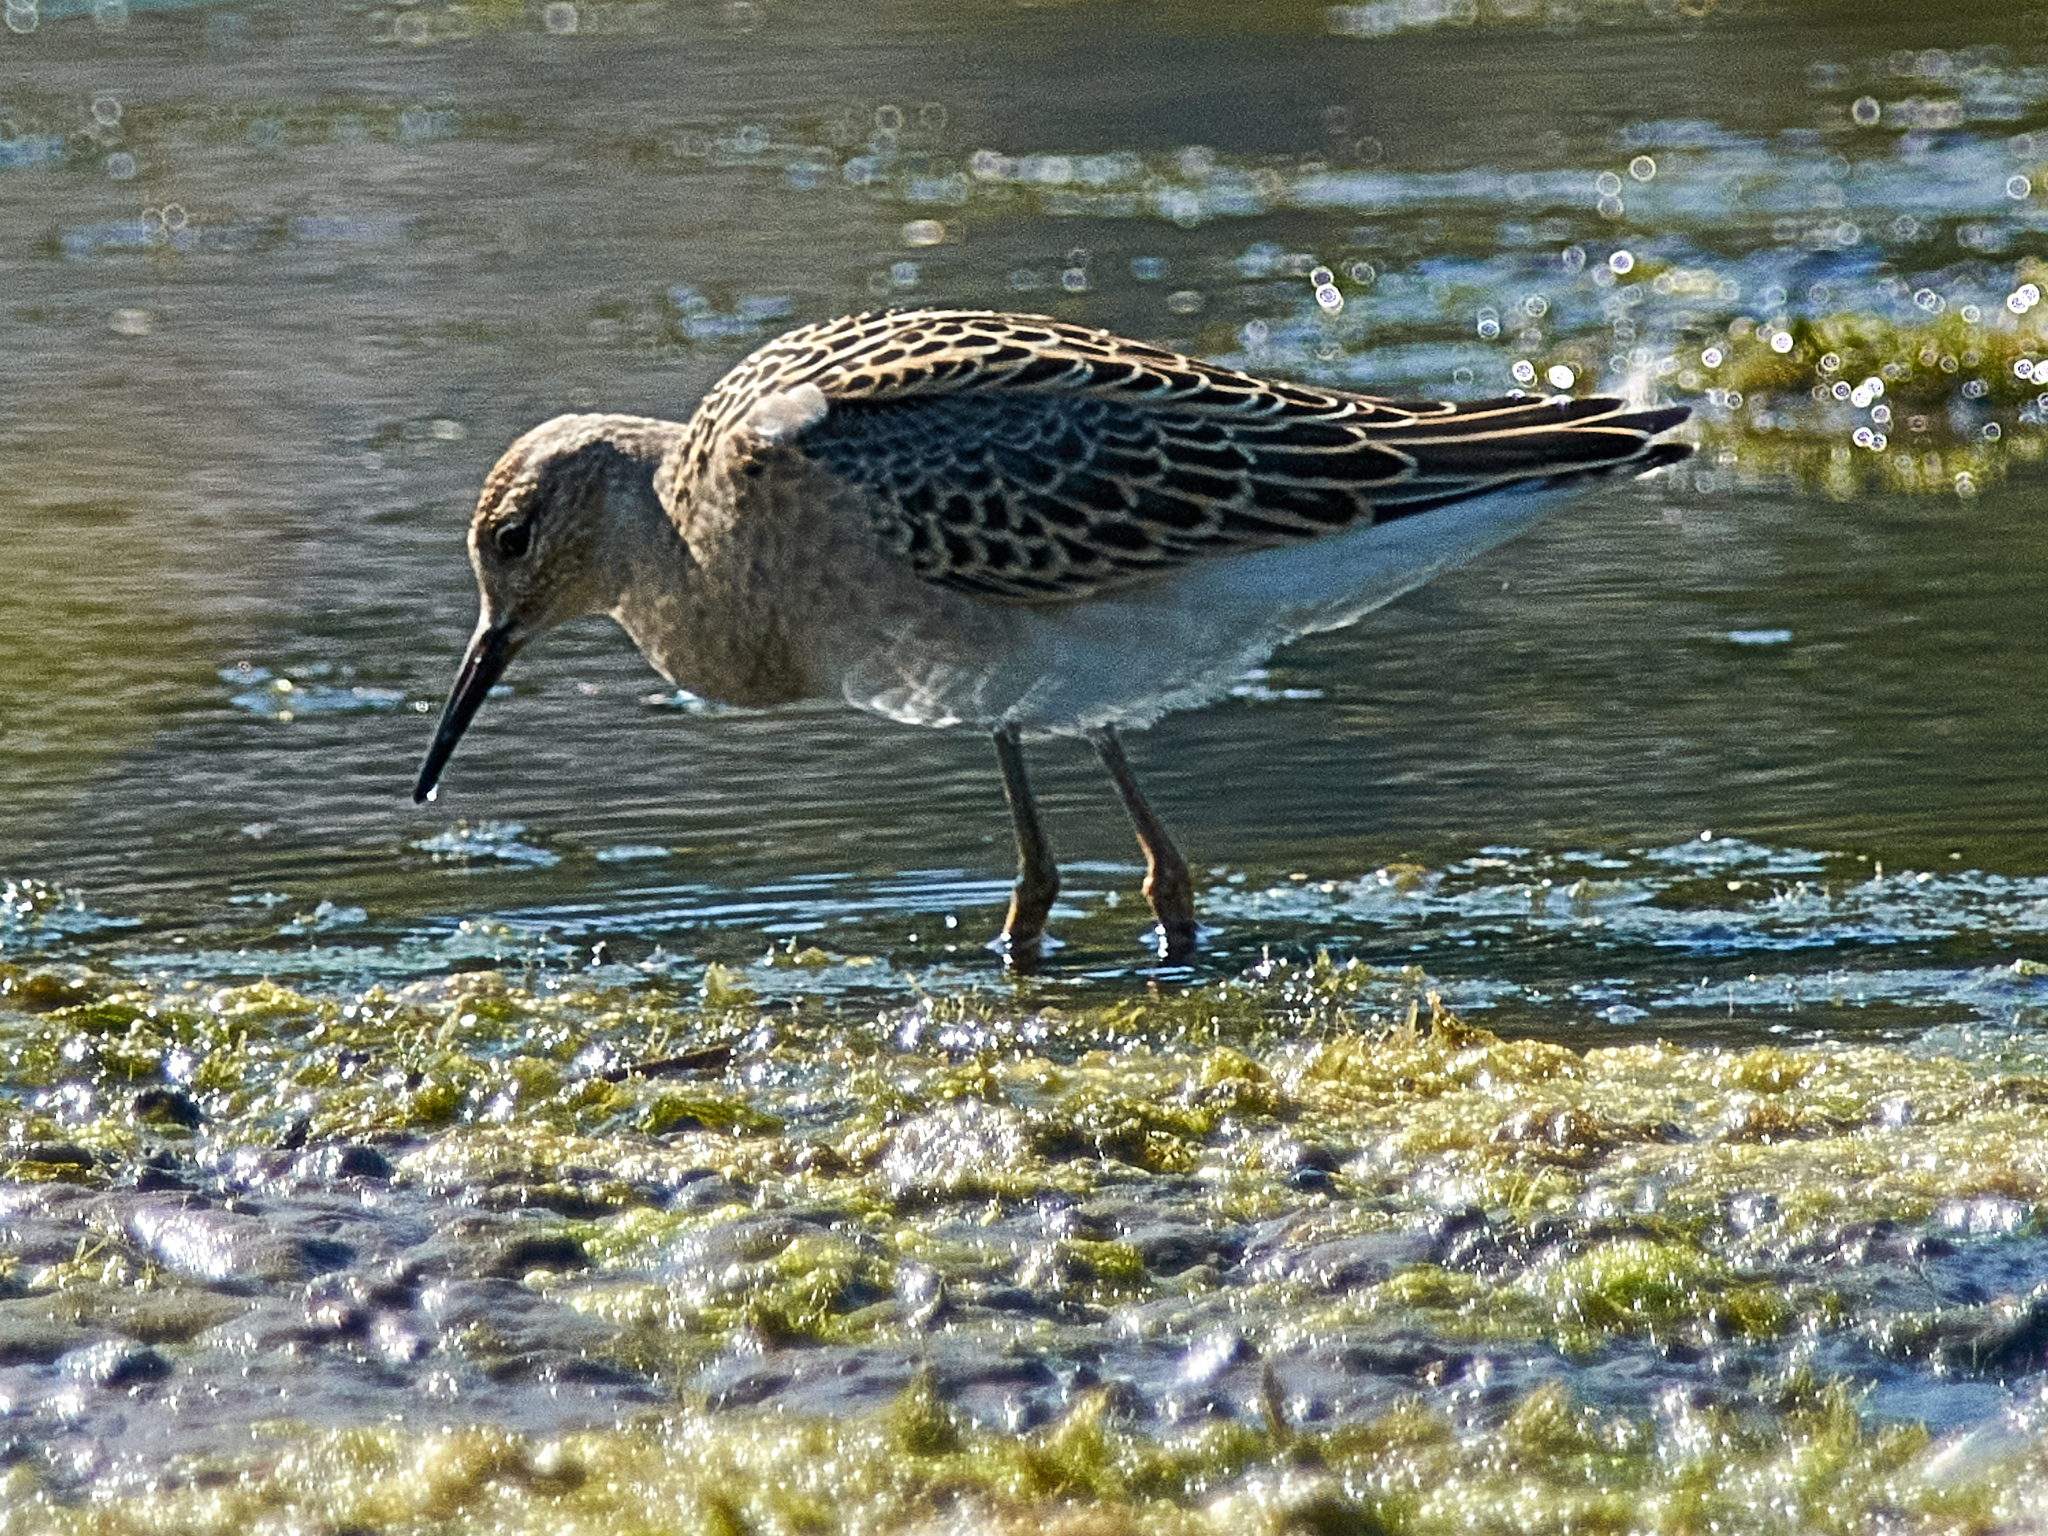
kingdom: Animalia
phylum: Chordata
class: Aves
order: Charadriiformes
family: Scolopacidae
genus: Calidris
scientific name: Calidris pugnax
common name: Ruff
